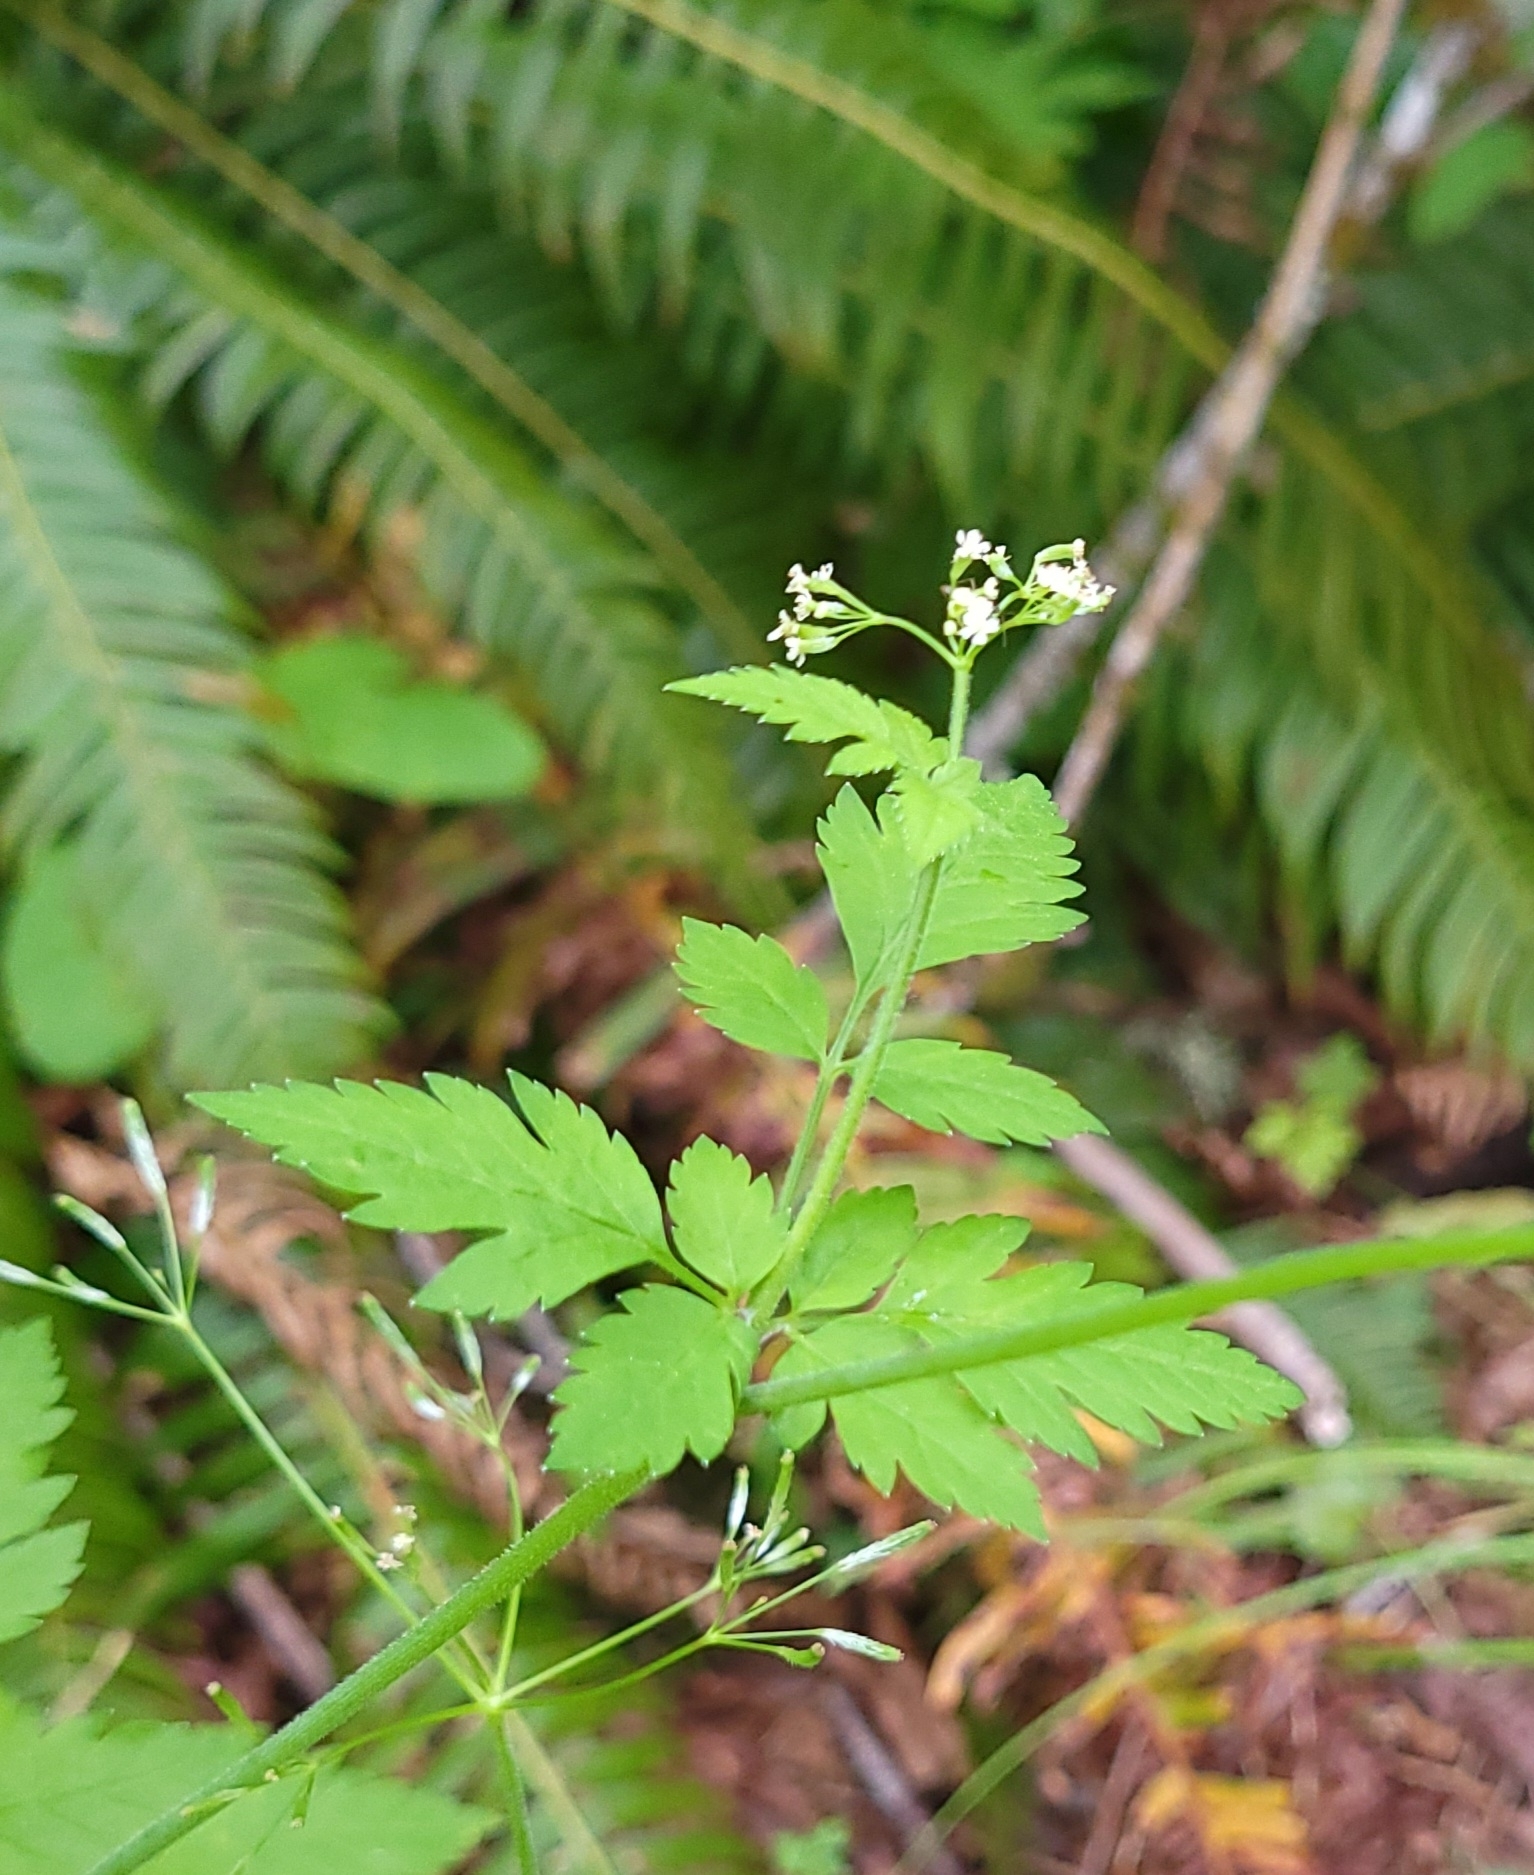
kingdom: Plantae
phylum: Tracheophyta
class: Magnoliopsida
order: Apiales
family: Apiaceae
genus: Osmorhiza
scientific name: Osmorhiza berteroi
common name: Mountain sweet cicely
